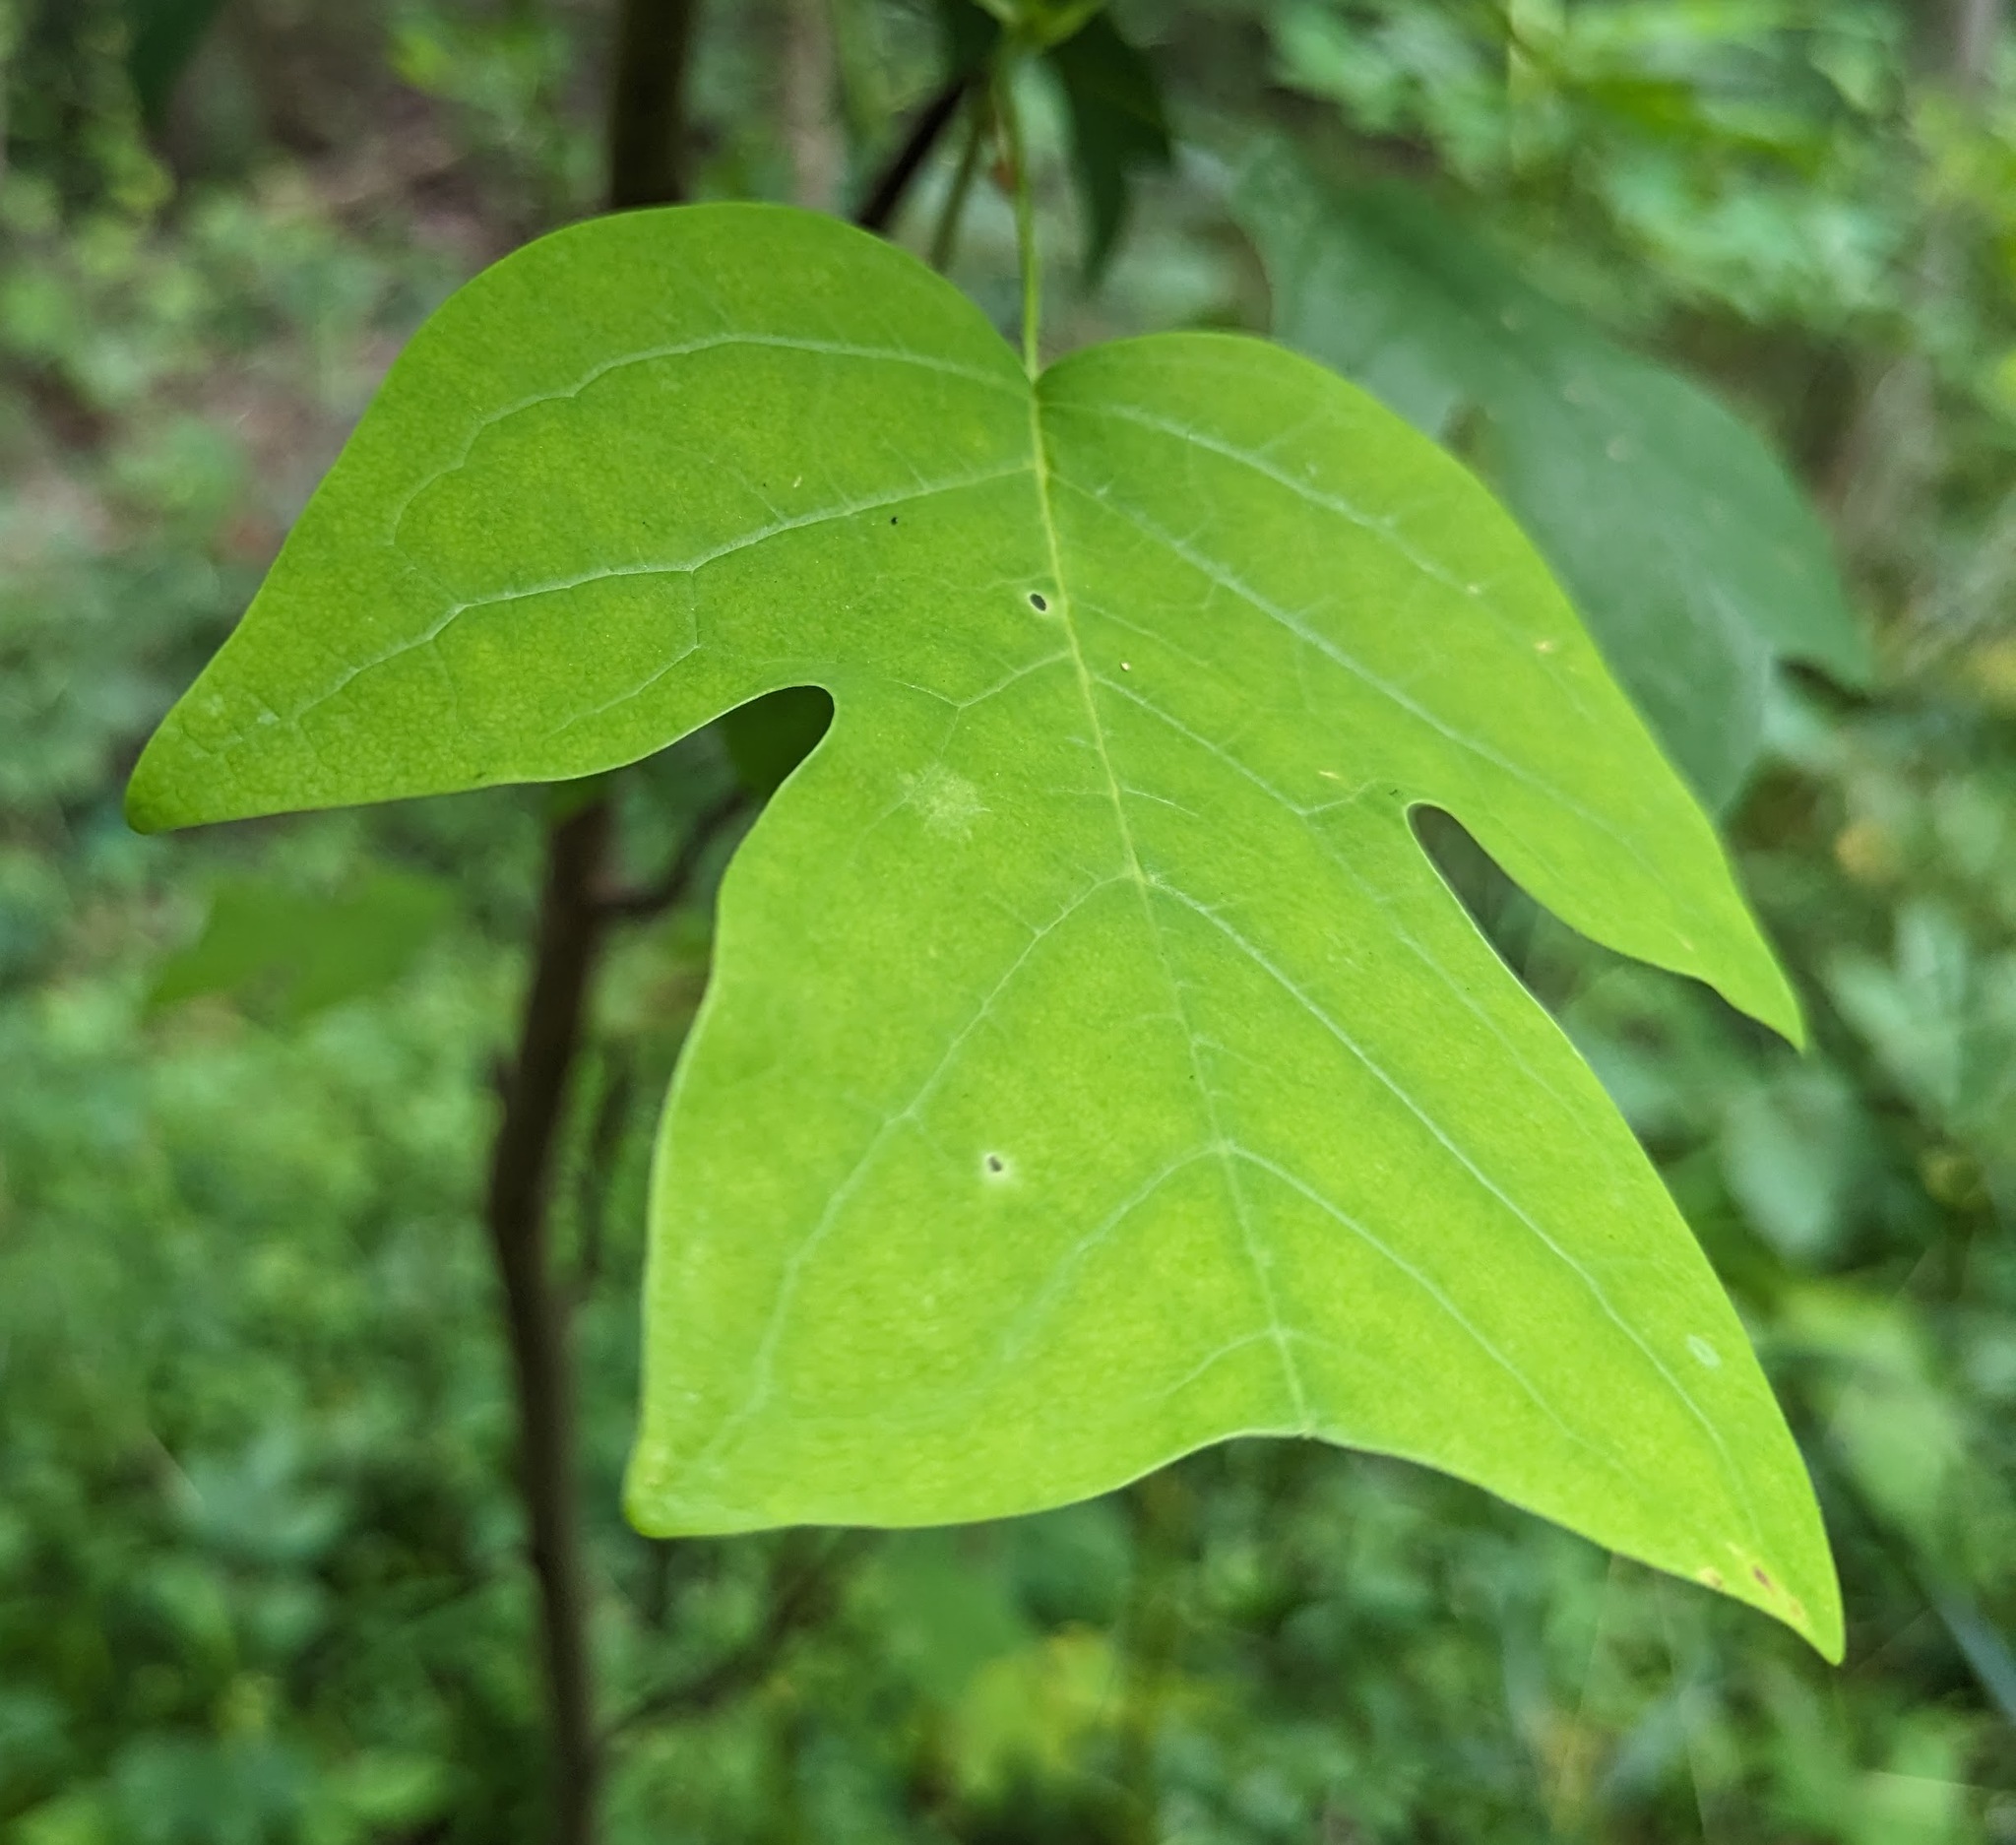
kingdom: Plantae
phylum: Tracheophyta
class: Magnoliopsida
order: Magnoliales
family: Magnoliaceae
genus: Liriodendron
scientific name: Liriodendron tulipifera
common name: Tulip tree
